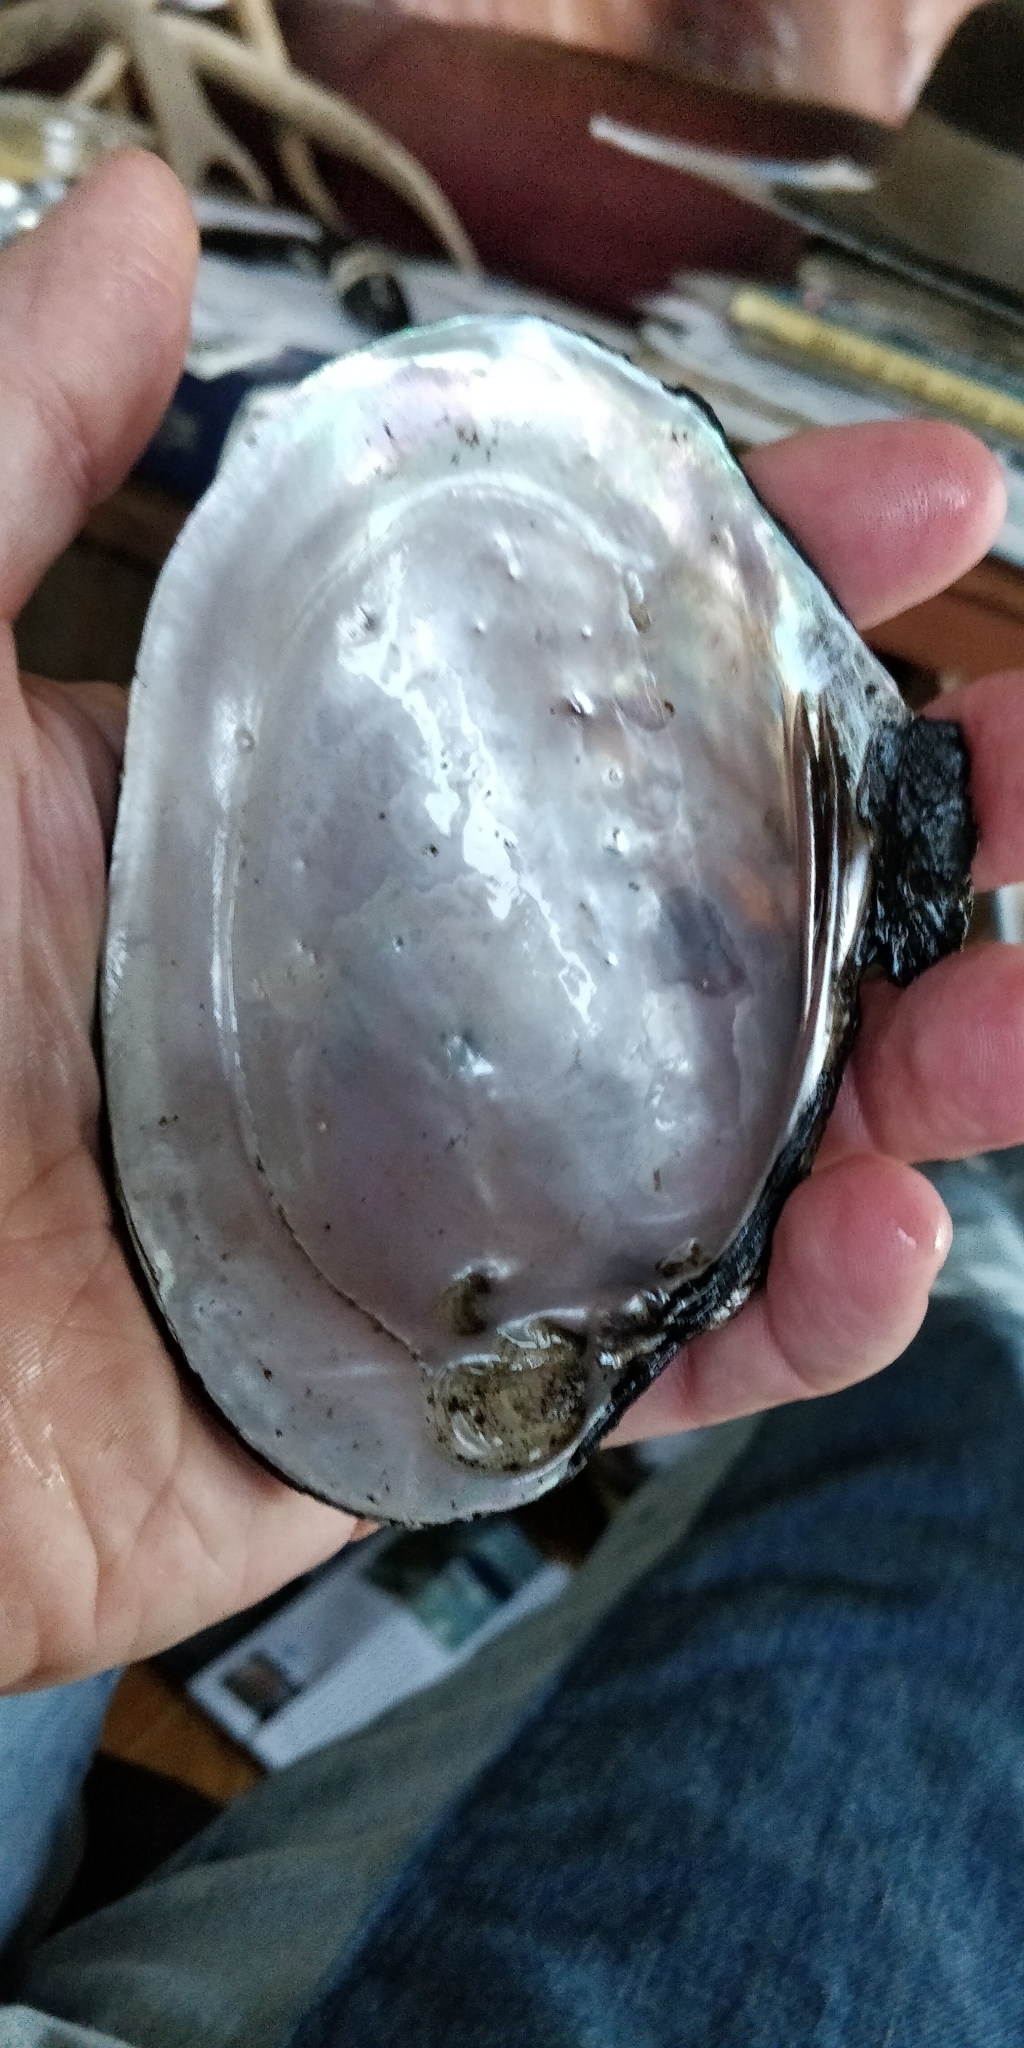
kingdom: Animalia
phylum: Mollusca
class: Bivalvia
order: Unionida
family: Unionidae
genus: Potamilus
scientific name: Potamilus alatus
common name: Pink heelsplitter
